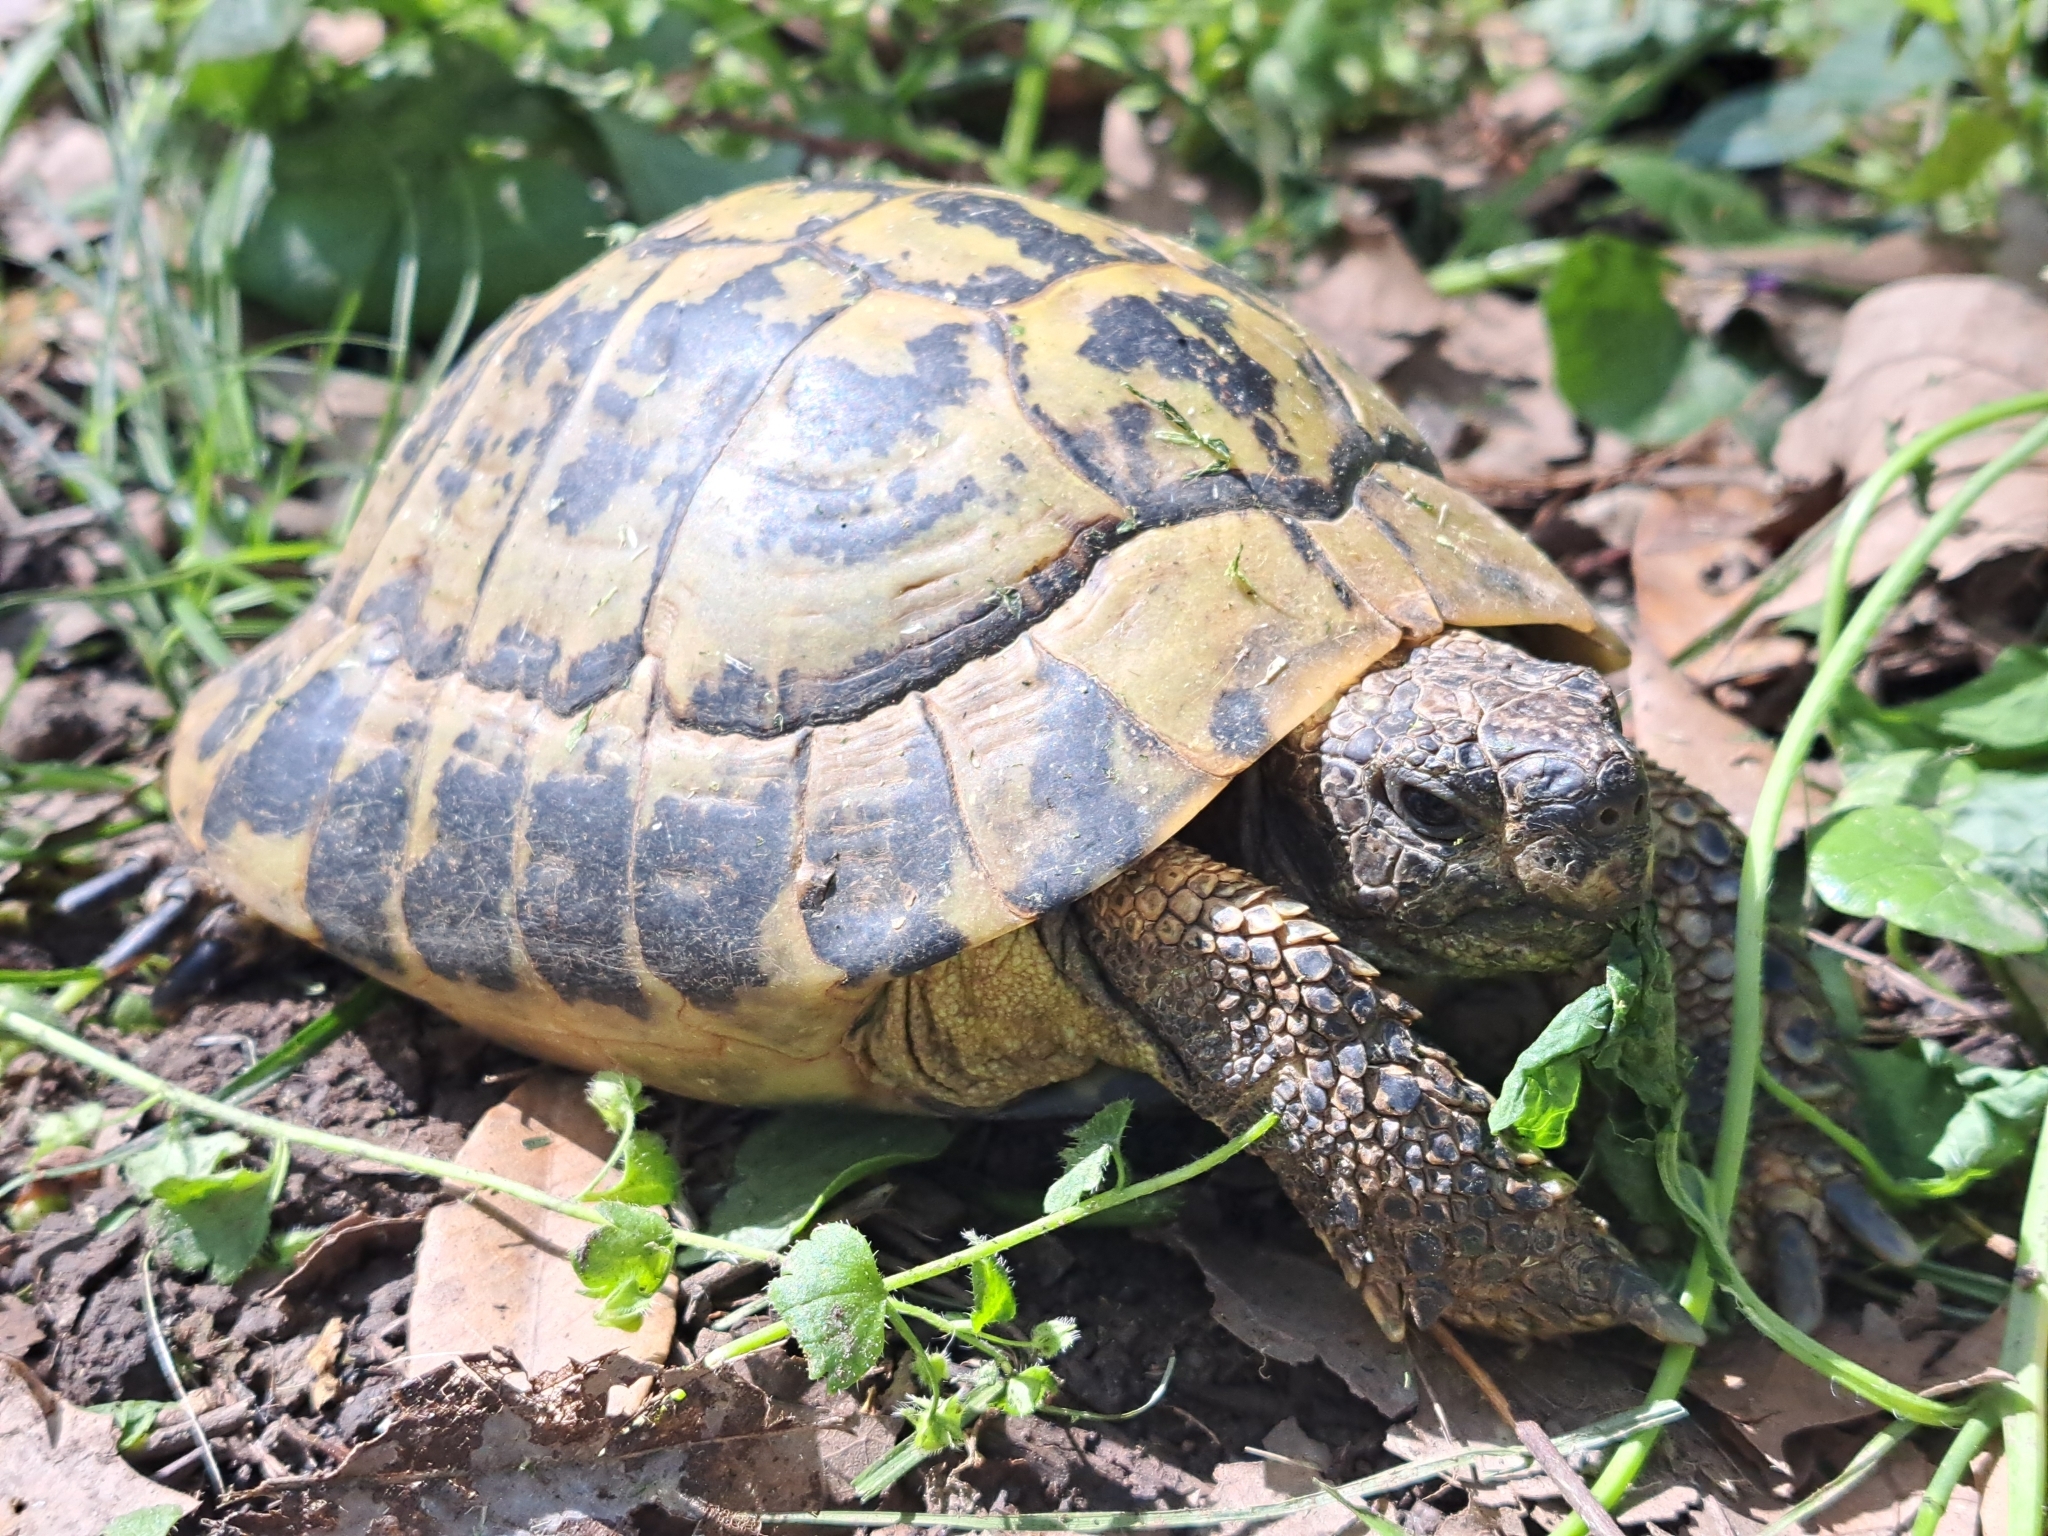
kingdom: Animalia
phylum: Chordata
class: Testudines
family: Testudinidae
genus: Testudo
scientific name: Testudo hermanni
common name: Hermann's tortoise
